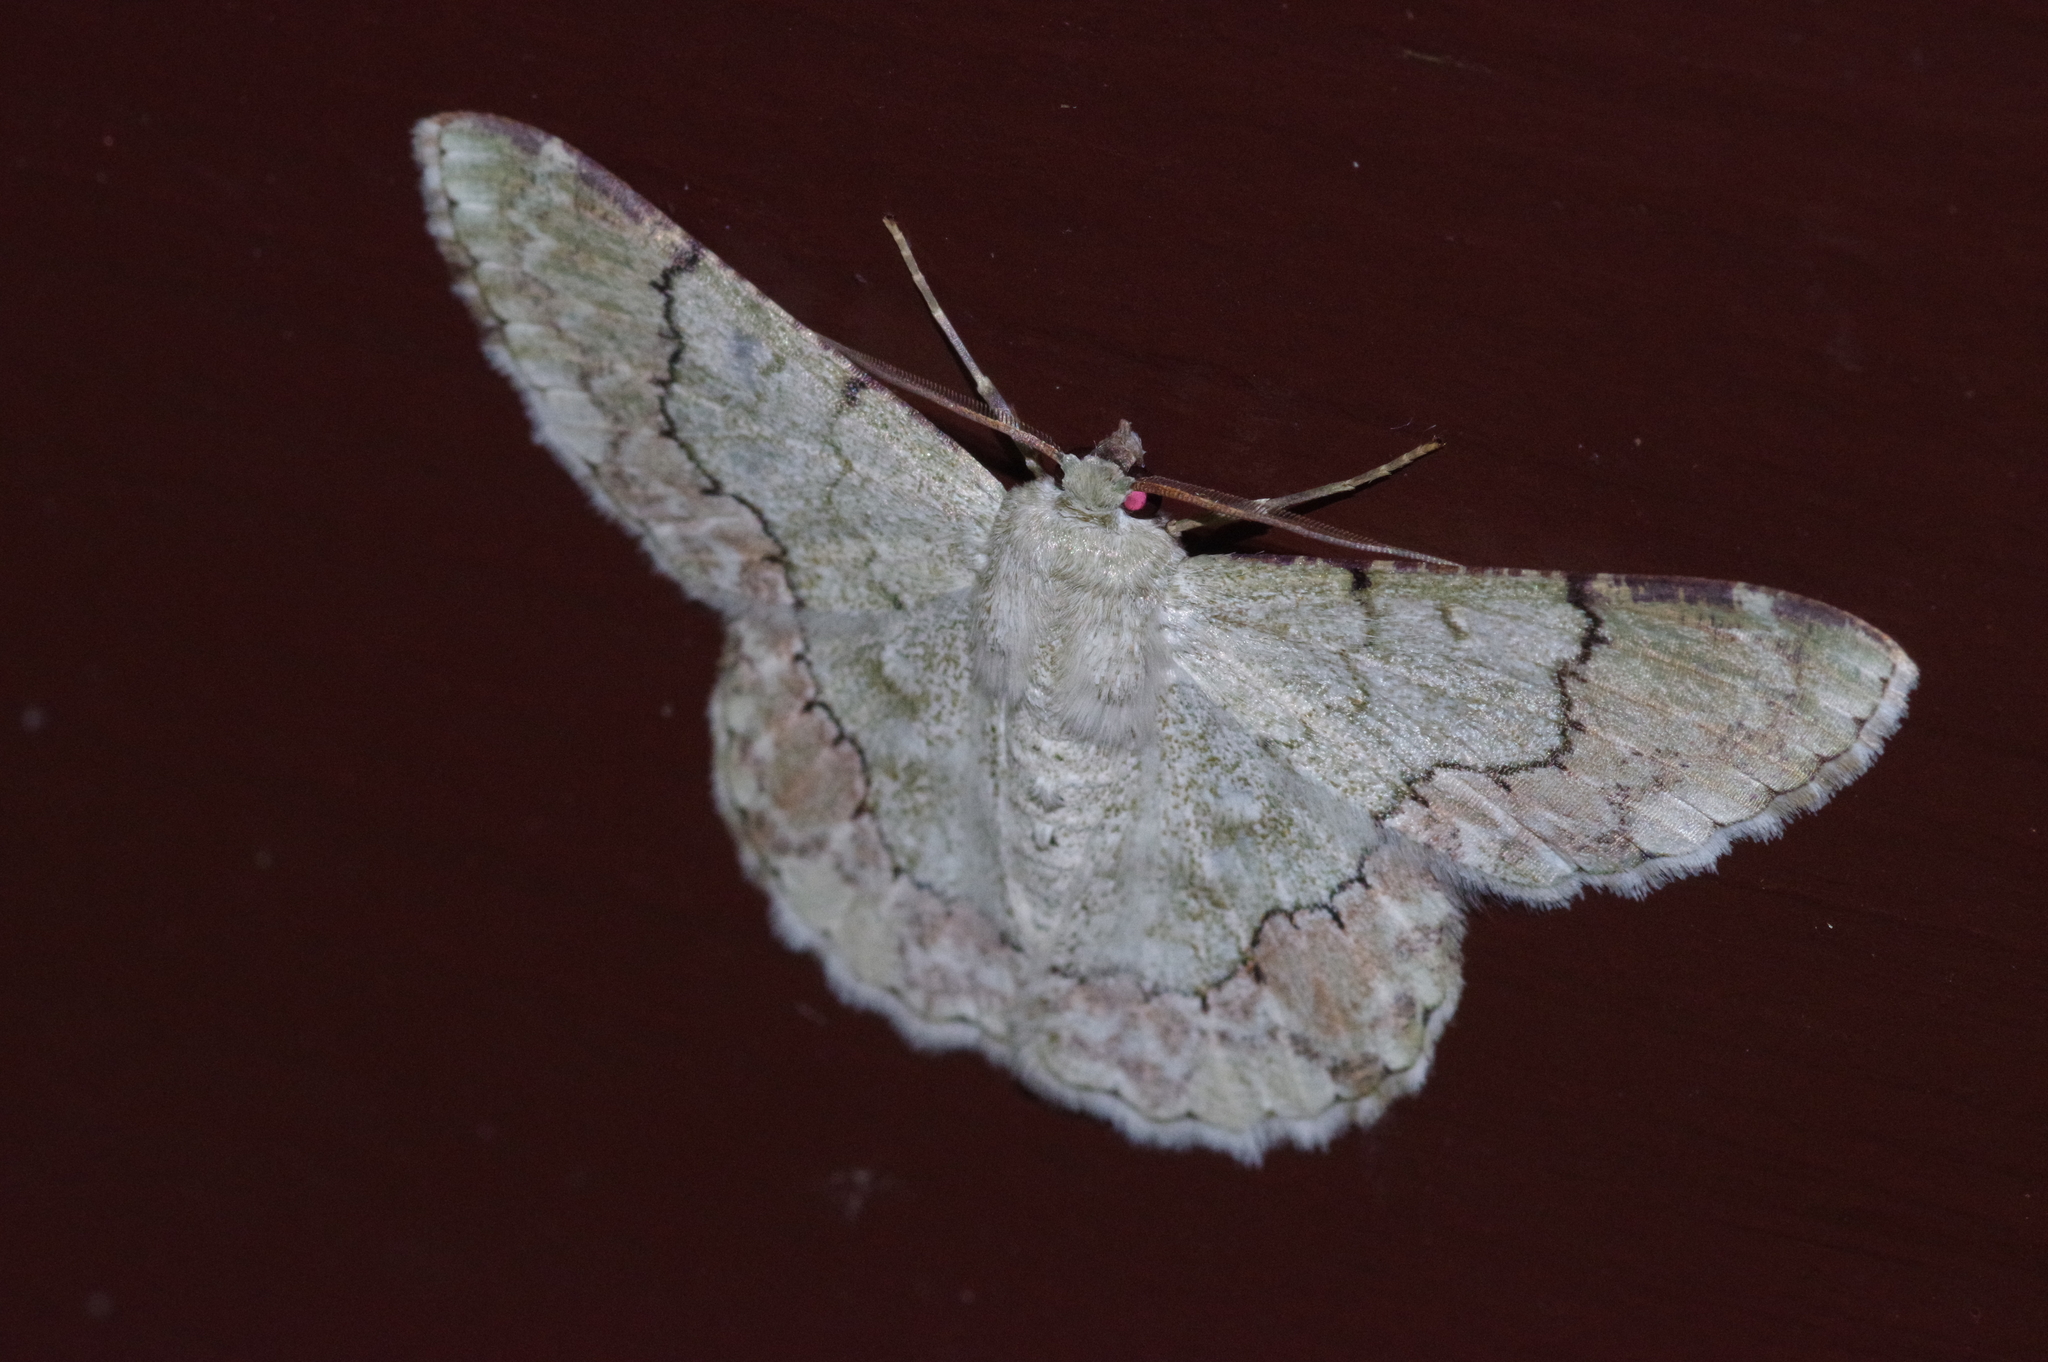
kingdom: Animalia
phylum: Arthropoda
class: Insecta
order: Lepidoptera
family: Geometridae
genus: Pingasa
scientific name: Pingasa ruginaria
